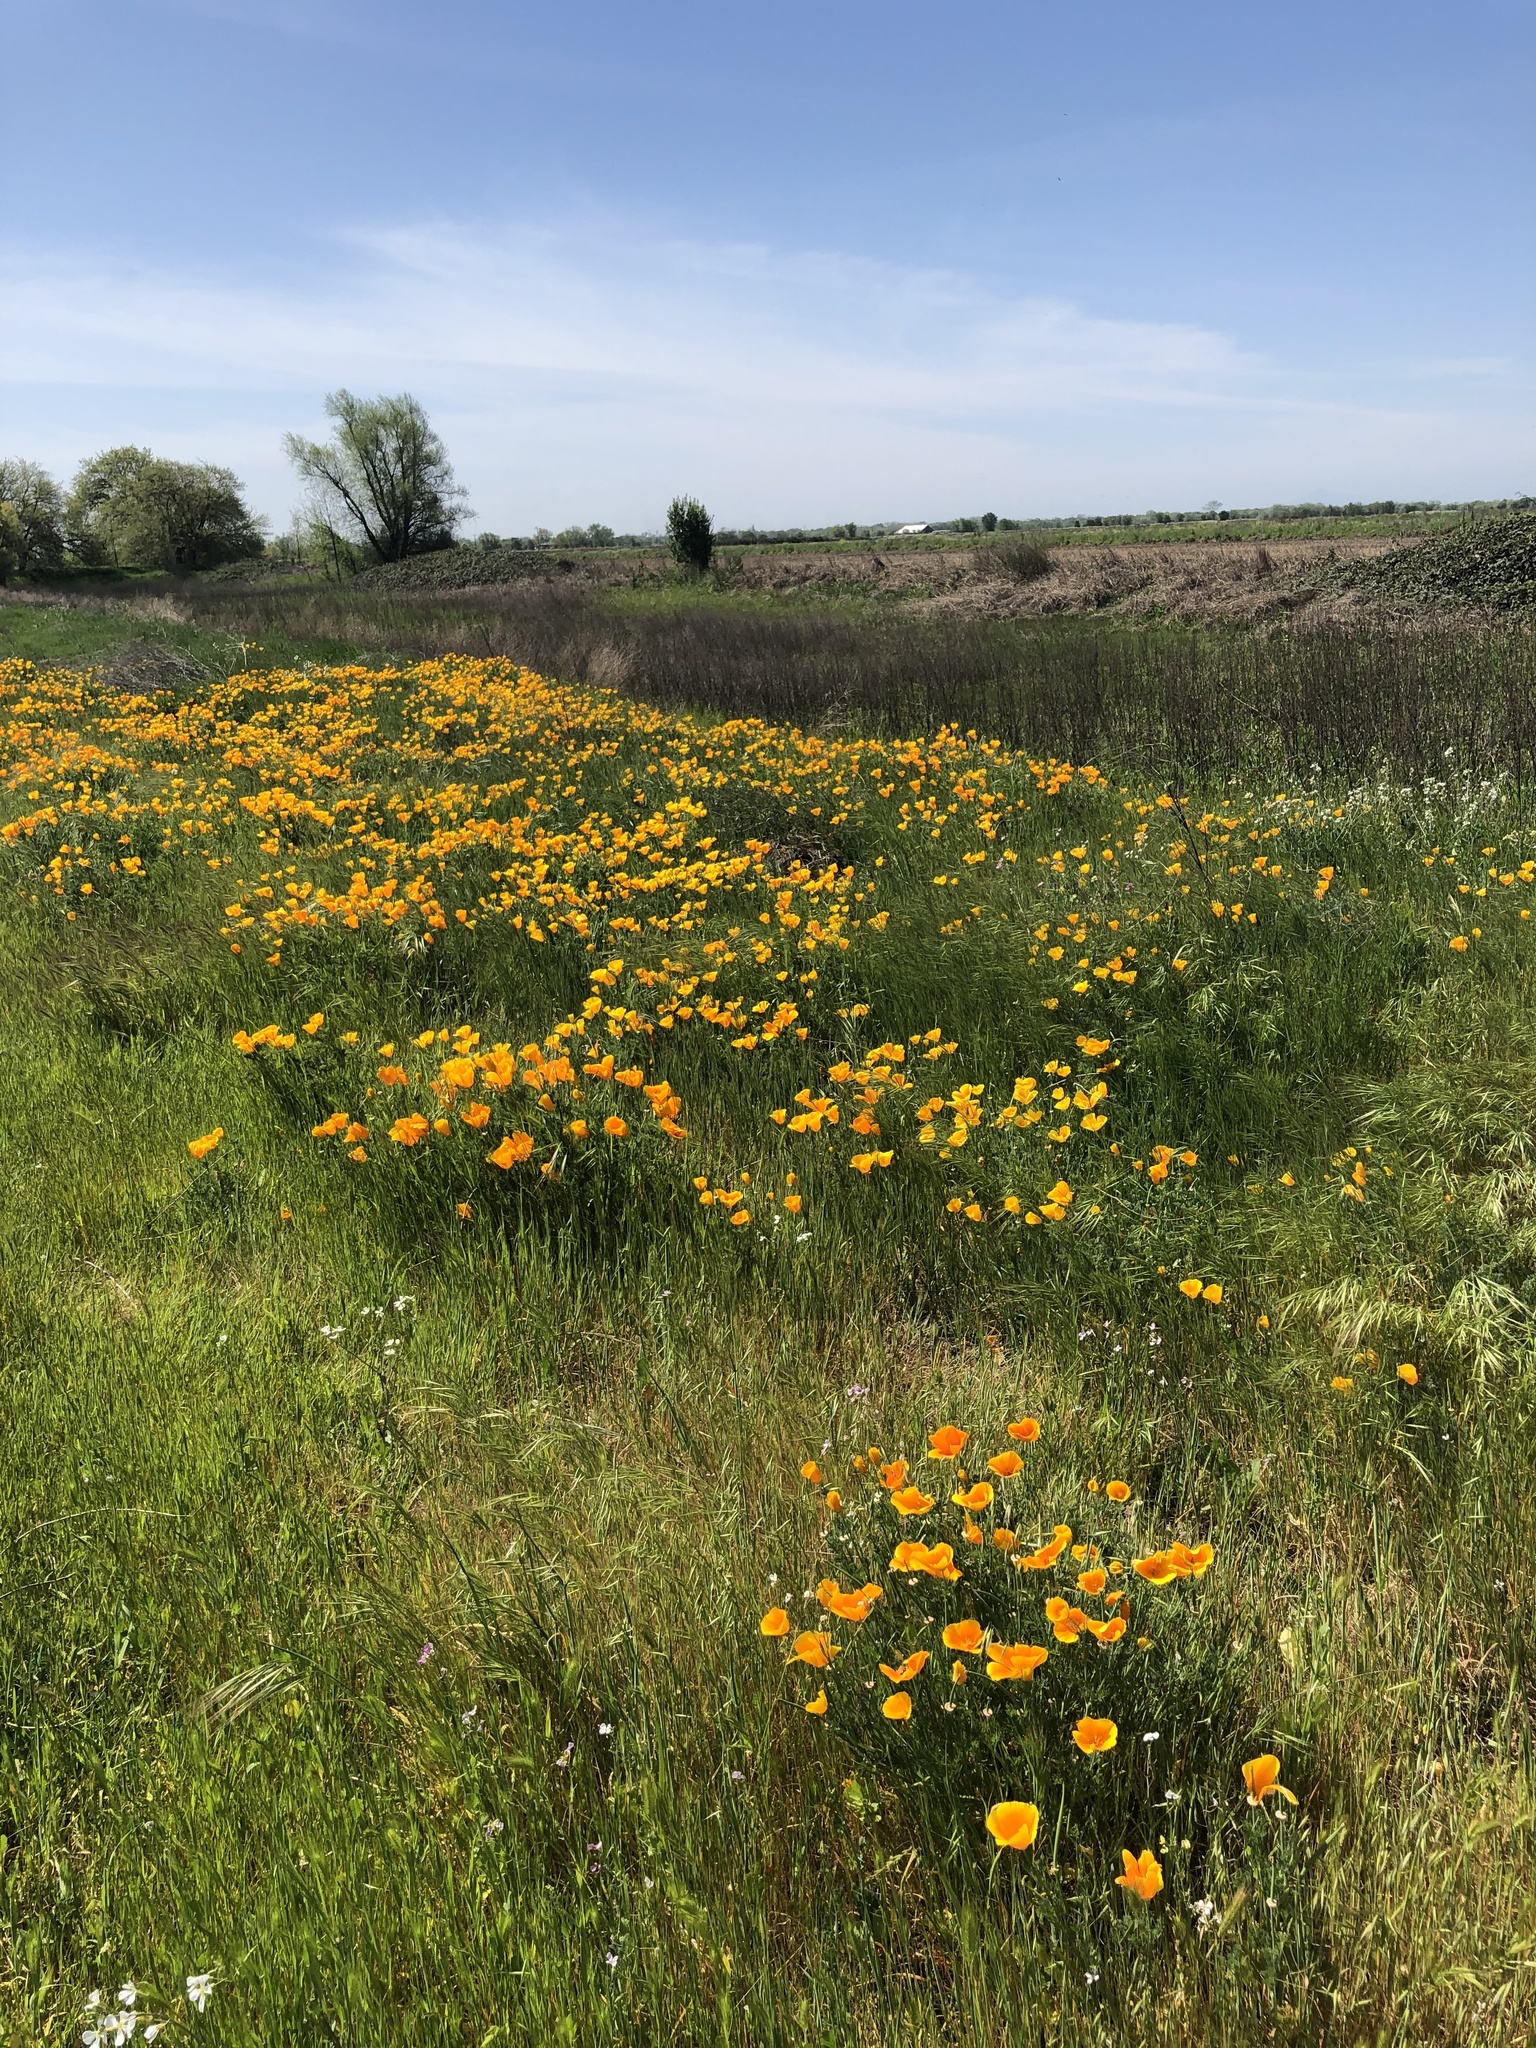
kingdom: Plantae
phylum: Tracheophyta
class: Magnoliopsida
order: Ranunculales
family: Papaveraceae
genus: Eschscholzia
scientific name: Eschscholzia californica
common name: California poppy
